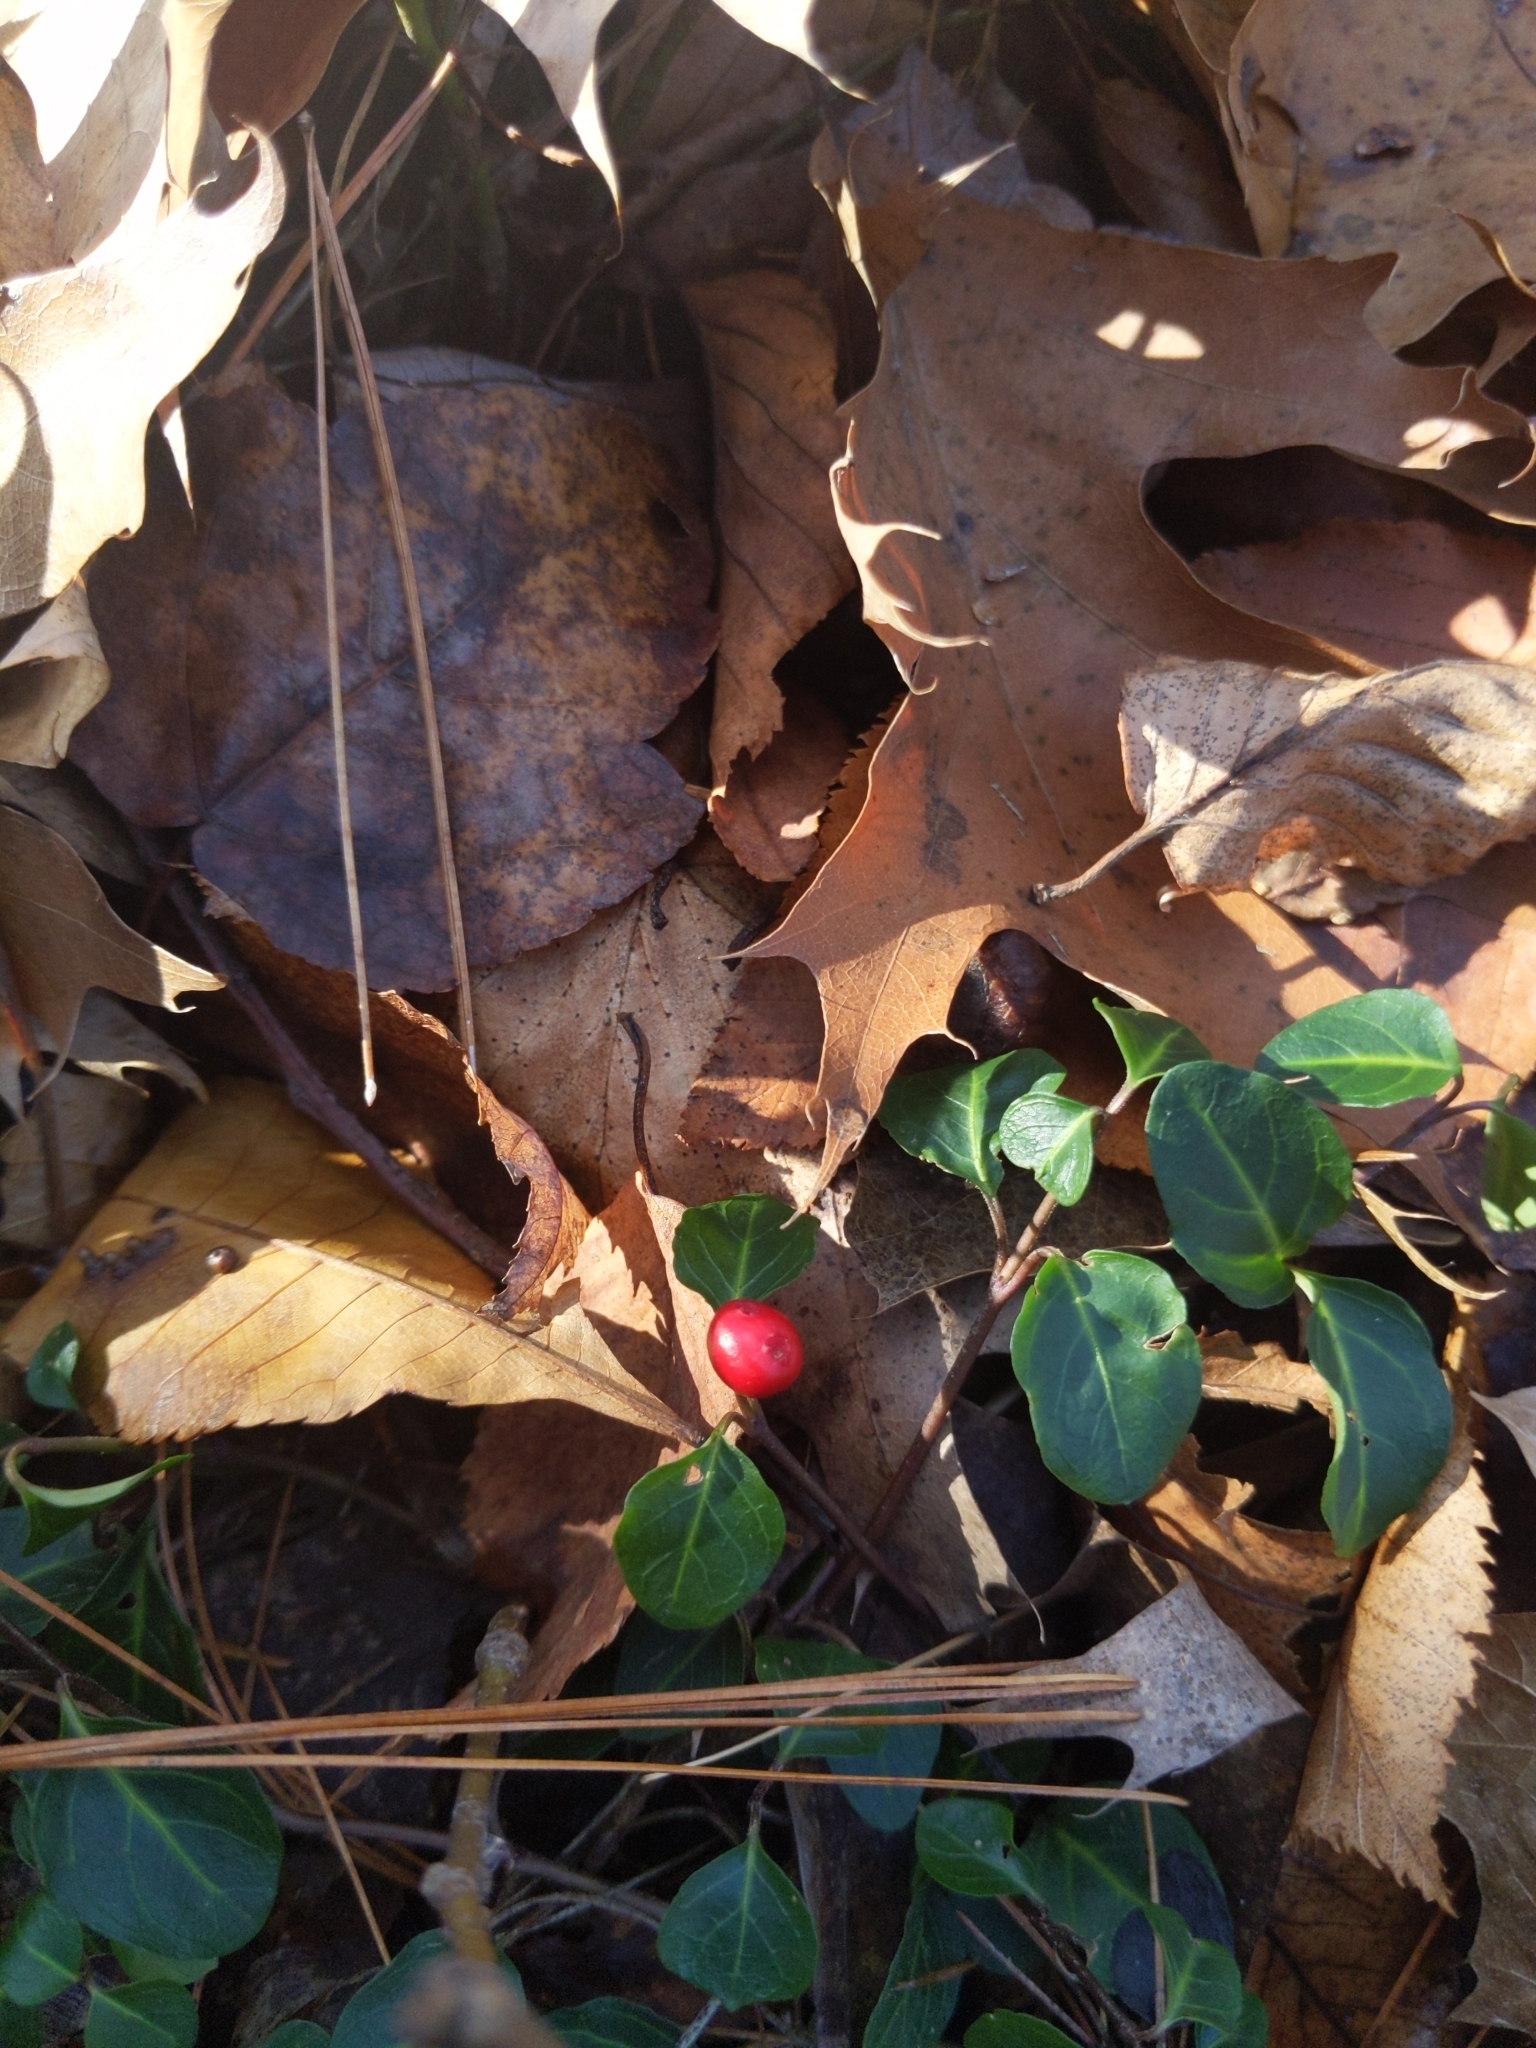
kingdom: Plantae
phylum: Tracheophyta
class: Magnoliopsida
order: Gentianales
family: Rubiaceae
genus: Mitchella
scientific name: Mitchella repens
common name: Partridge-berry
